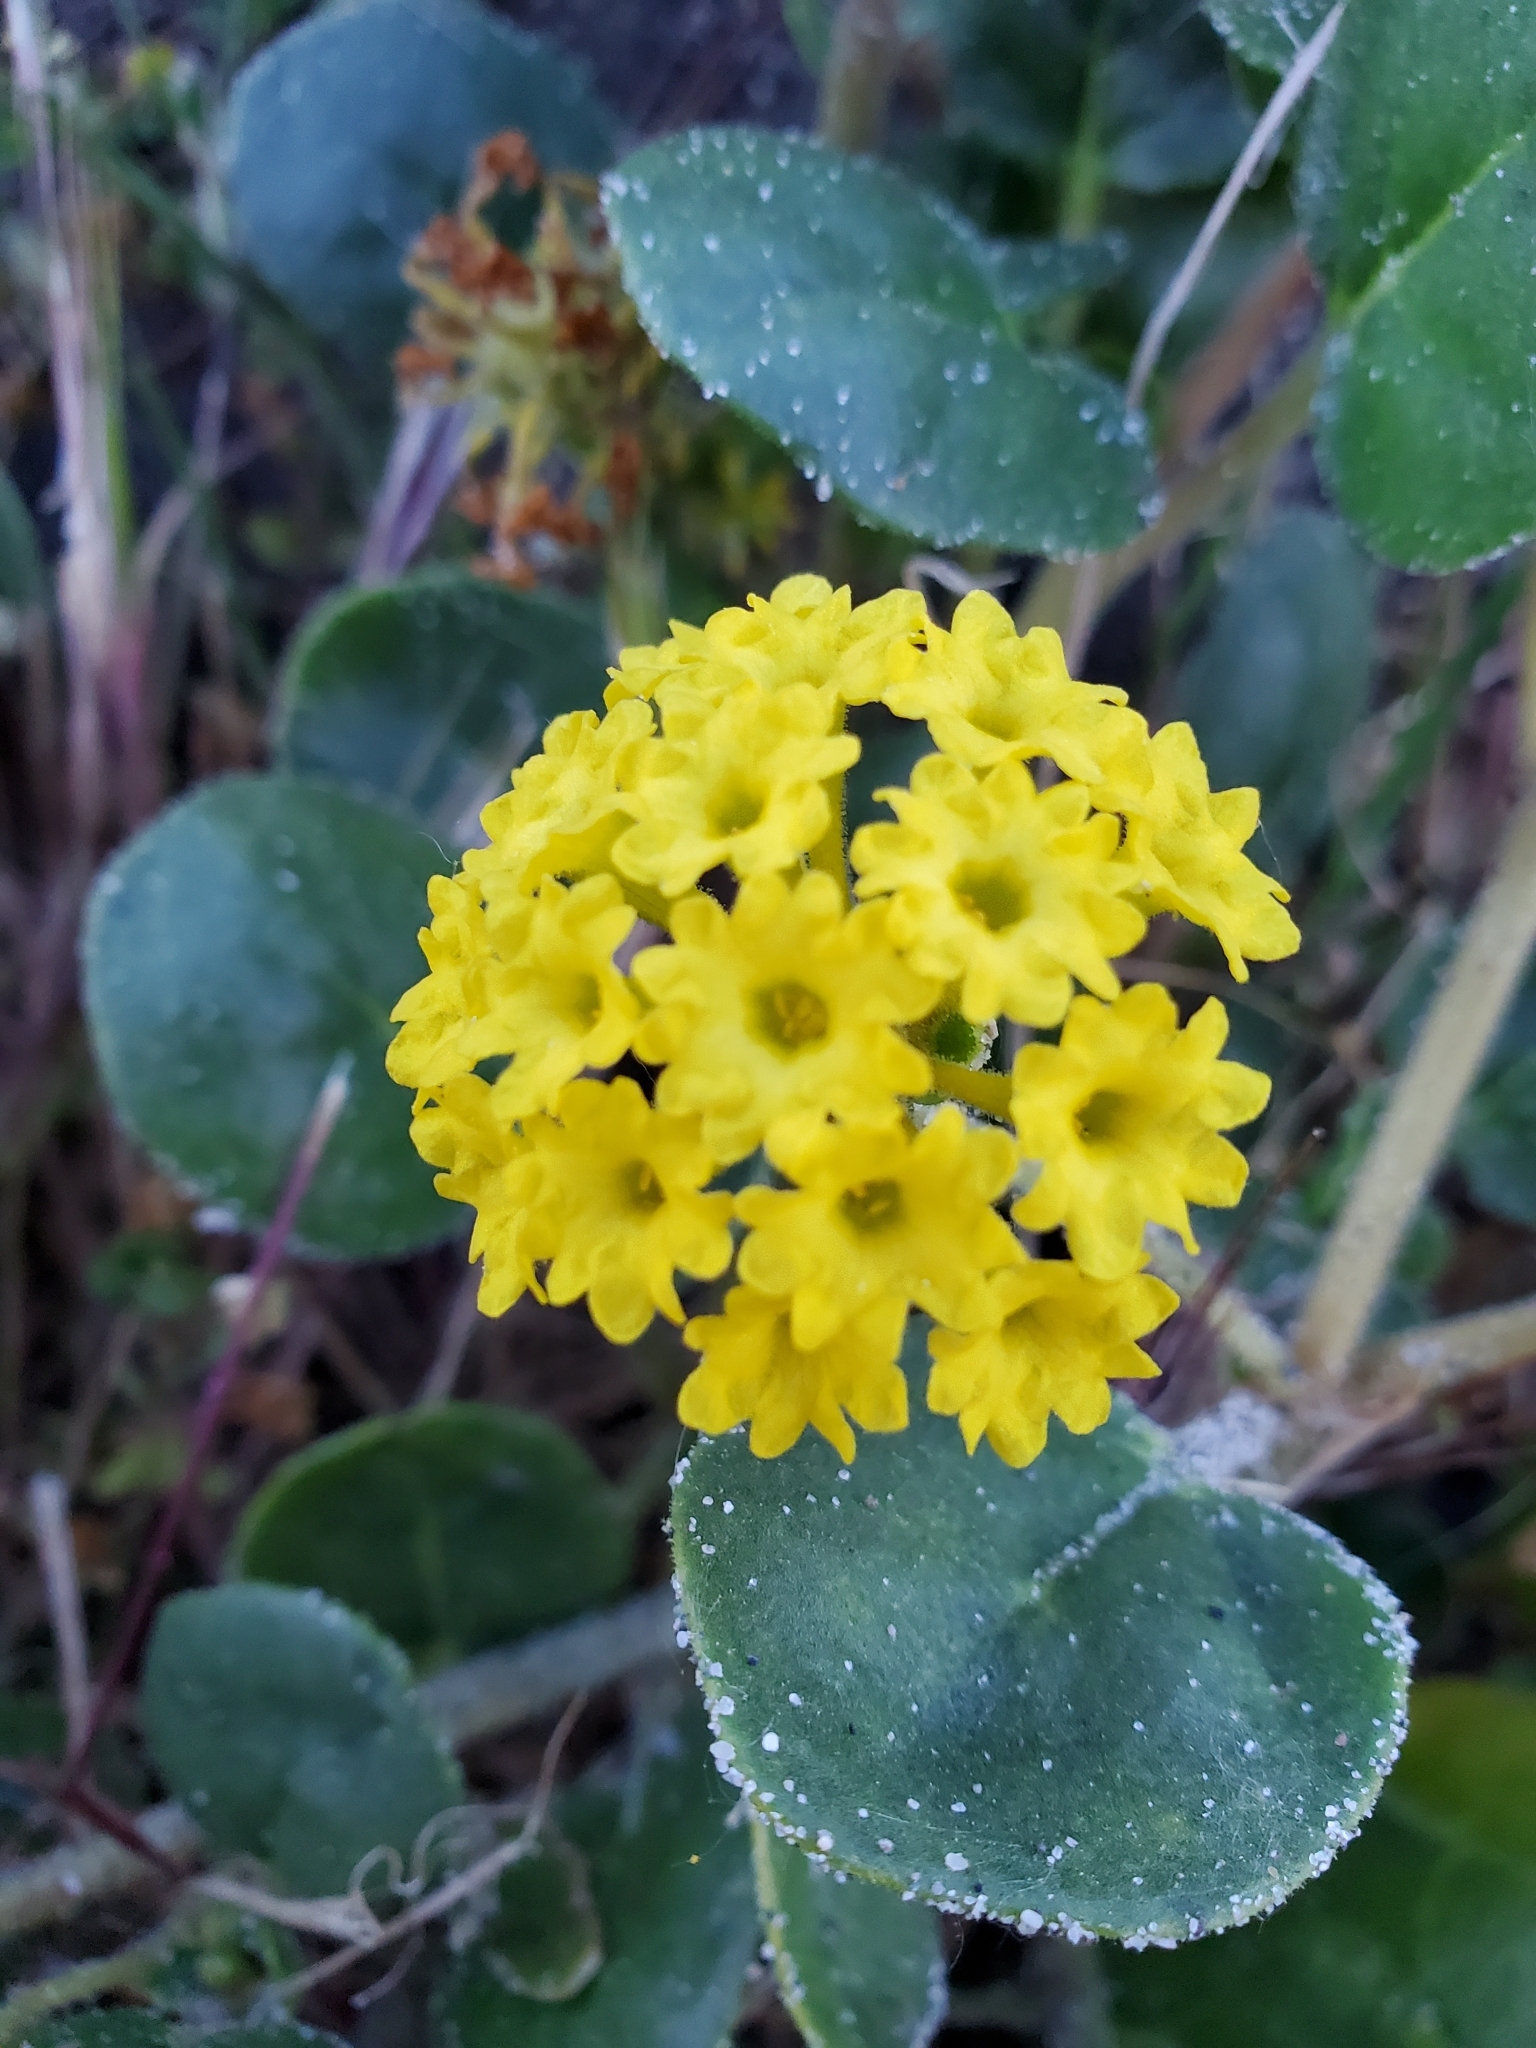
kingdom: Plantae
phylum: Tracheophyta
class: Magnoliopsida
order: Caryophyllales
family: Nyctaginaceae
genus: Abronia
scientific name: Abronia latifolia
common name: Yellow sand-verbena
